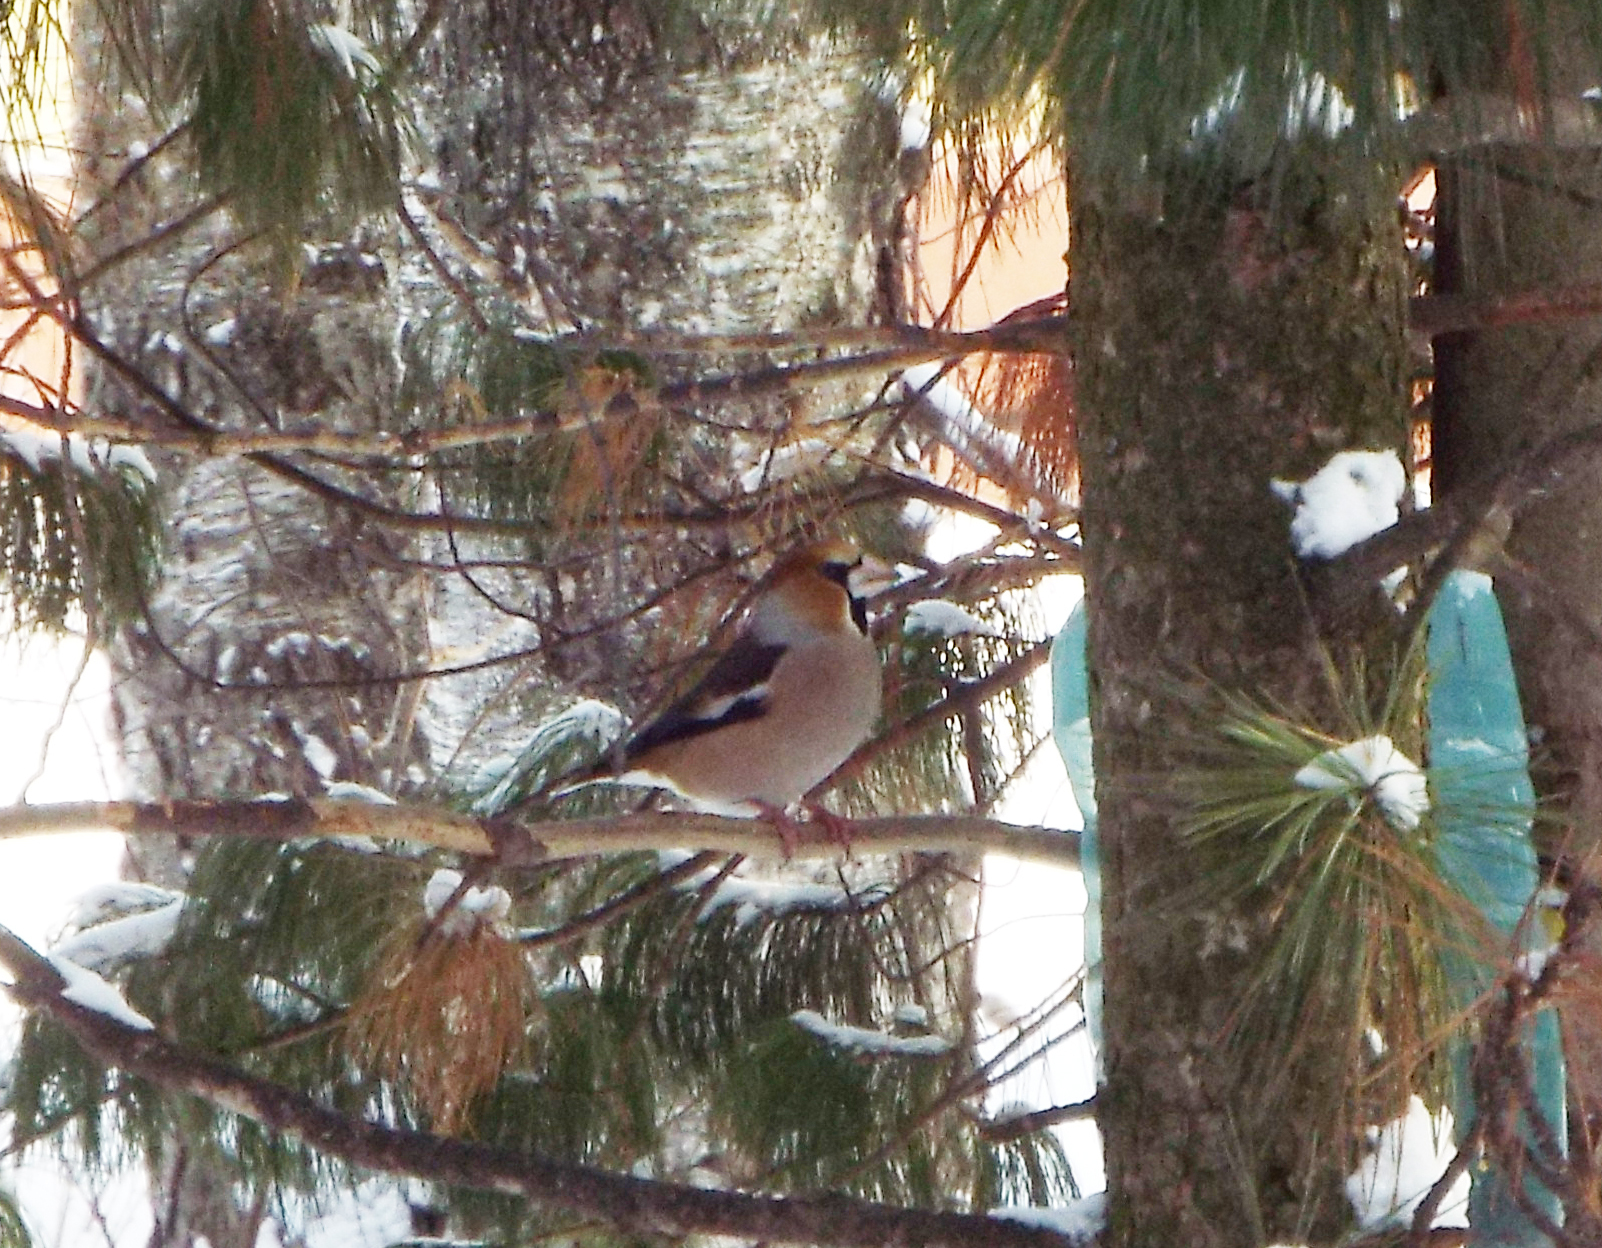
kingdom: Animalia
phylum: Chordata
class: Aves
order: Passeriformes
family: Fringillidae
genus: Coccothraustes
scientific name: Coccothraustes coccothraustes
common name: Hawfinch
